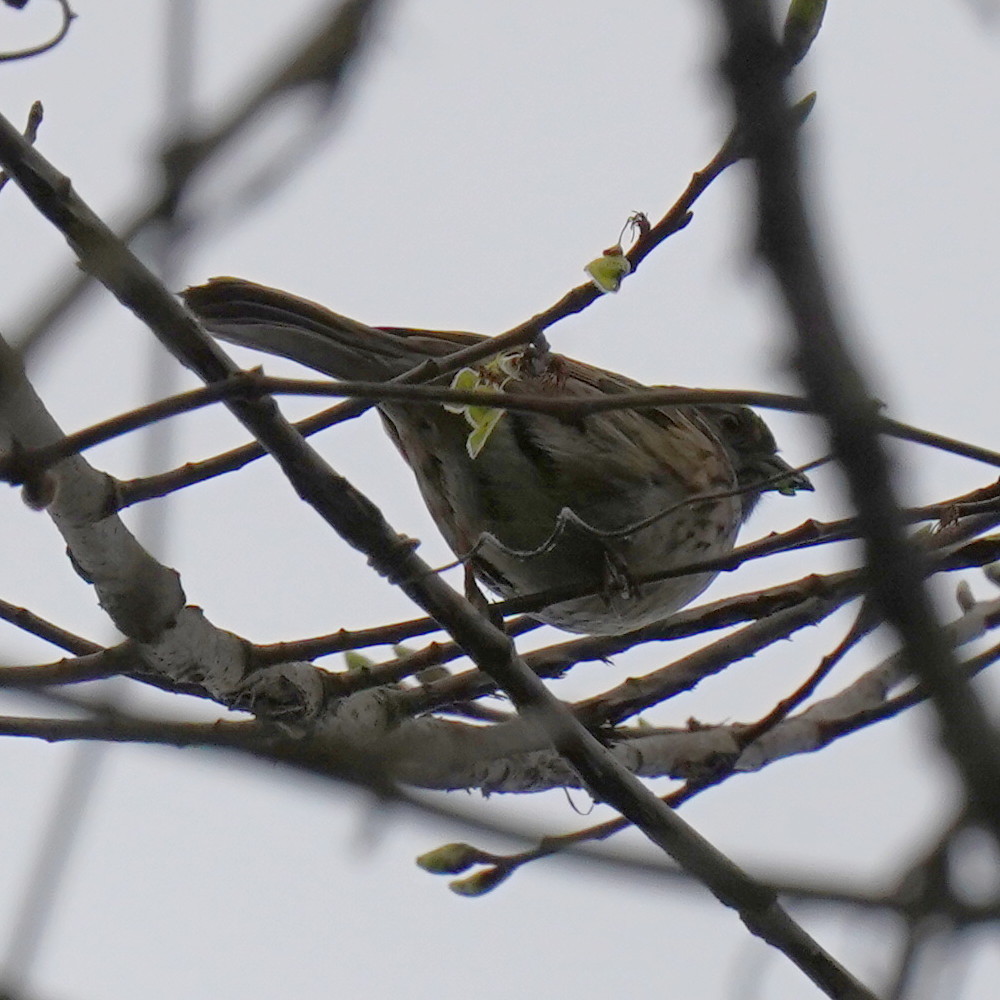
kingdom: Animalia
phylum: Chordata
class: Aves
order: Passeriformes
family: Passerellidae
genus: Zonotrichia
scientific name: Zonotrichia albicollis
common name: White-throated sparrow
